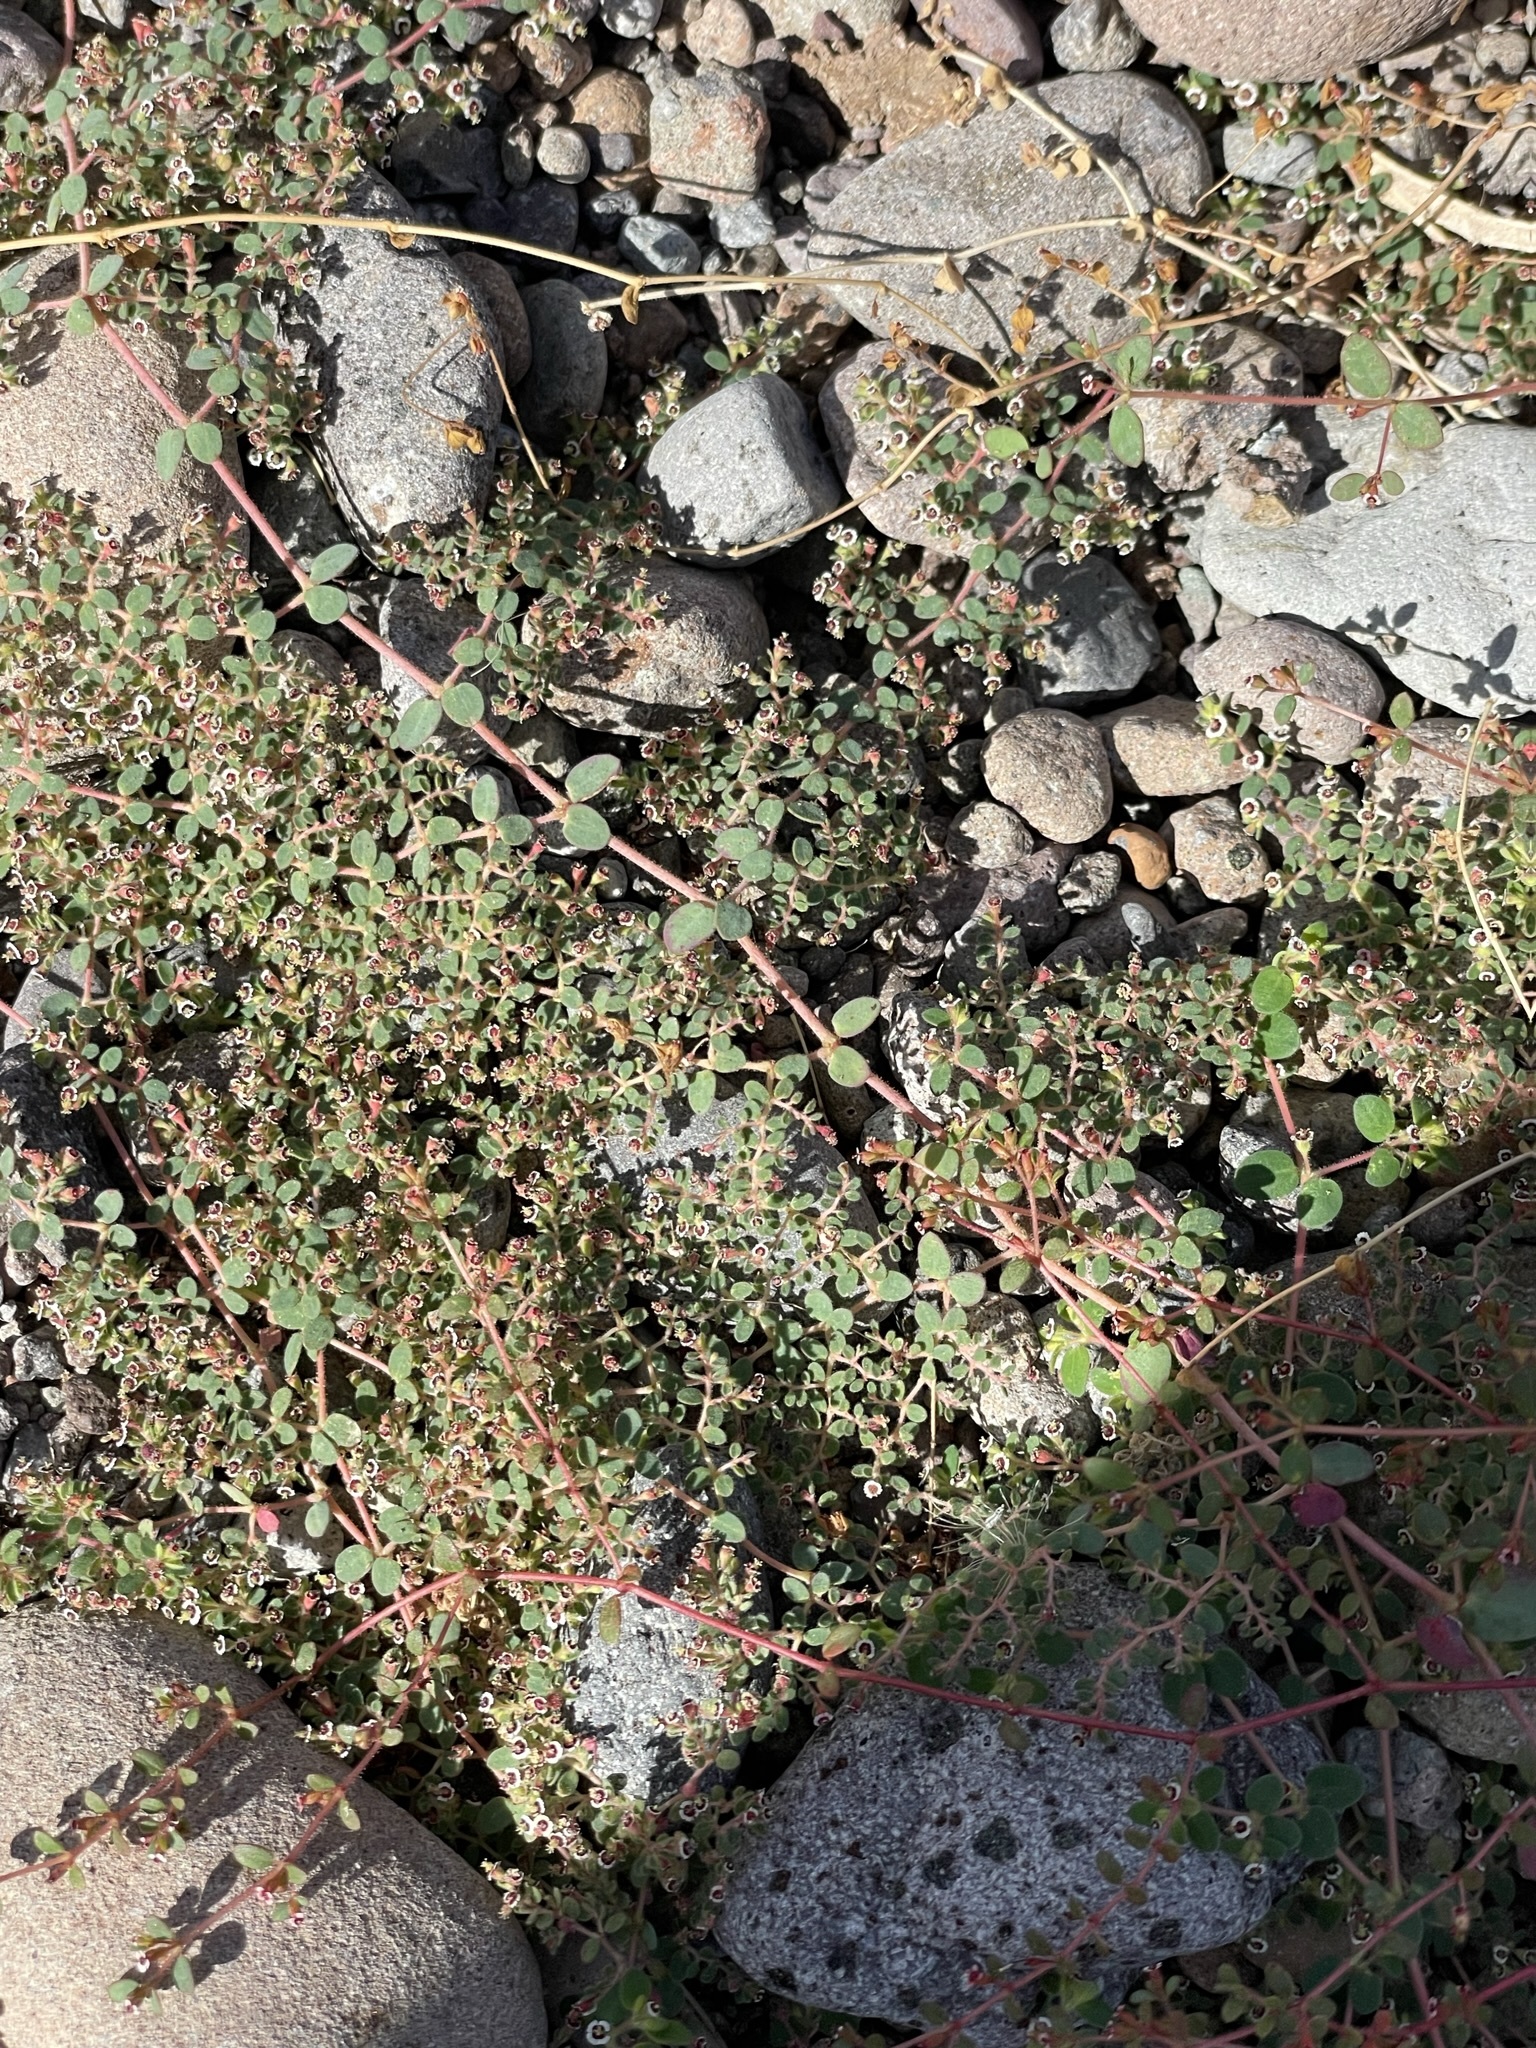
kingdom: Plantae
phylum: Tracheophyta
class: Magnoliopsida
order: Malpighiales
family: Euphorbiaceae
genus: Euphorbia
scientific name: Euphorbia polycarpa
